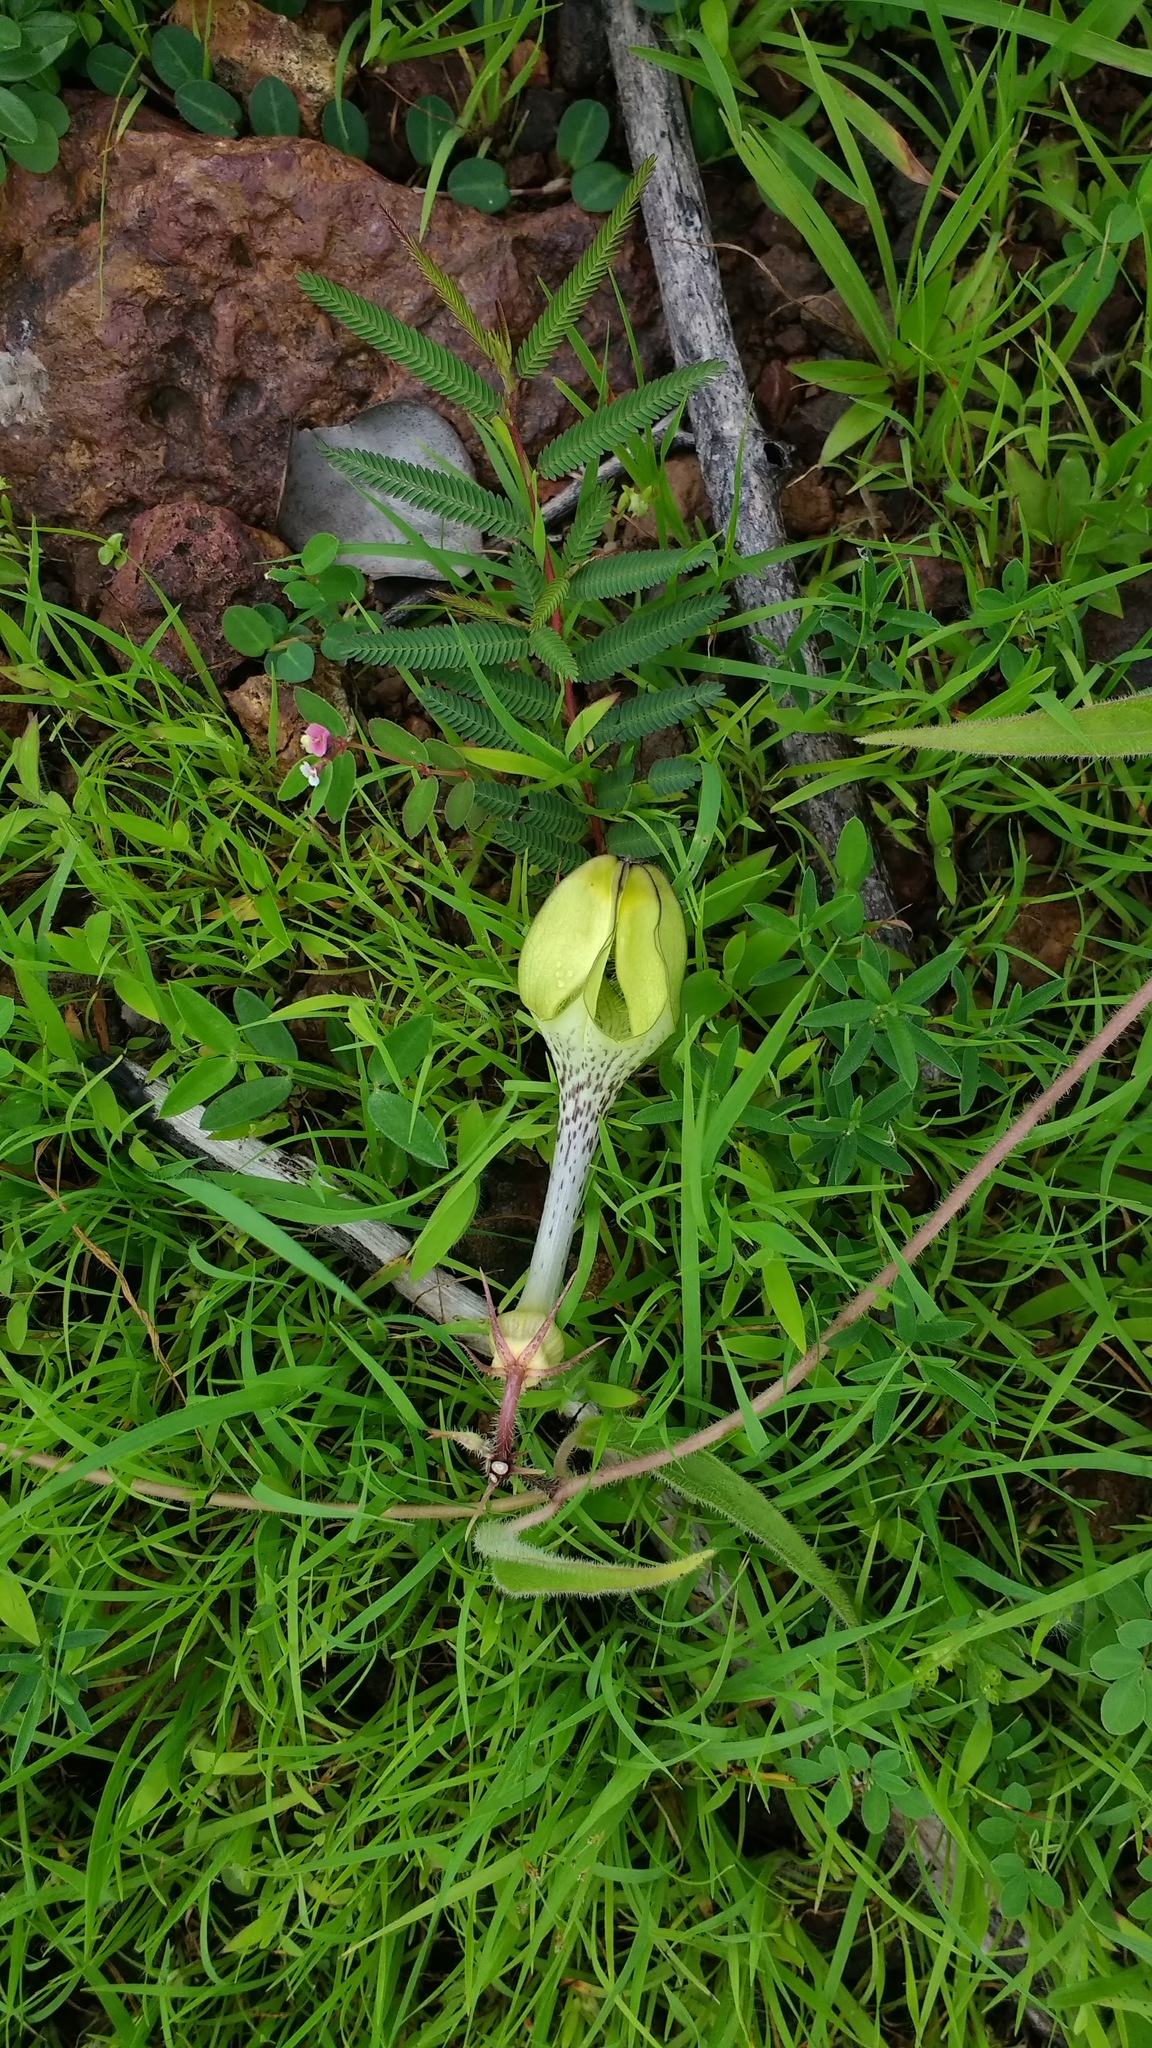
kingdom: Plantae
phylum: Tracheophyta
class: Magnoliopsida
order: Gentianales
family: Apocynaceae
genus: Ceropegia
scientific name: Ceropegia hirsuta
